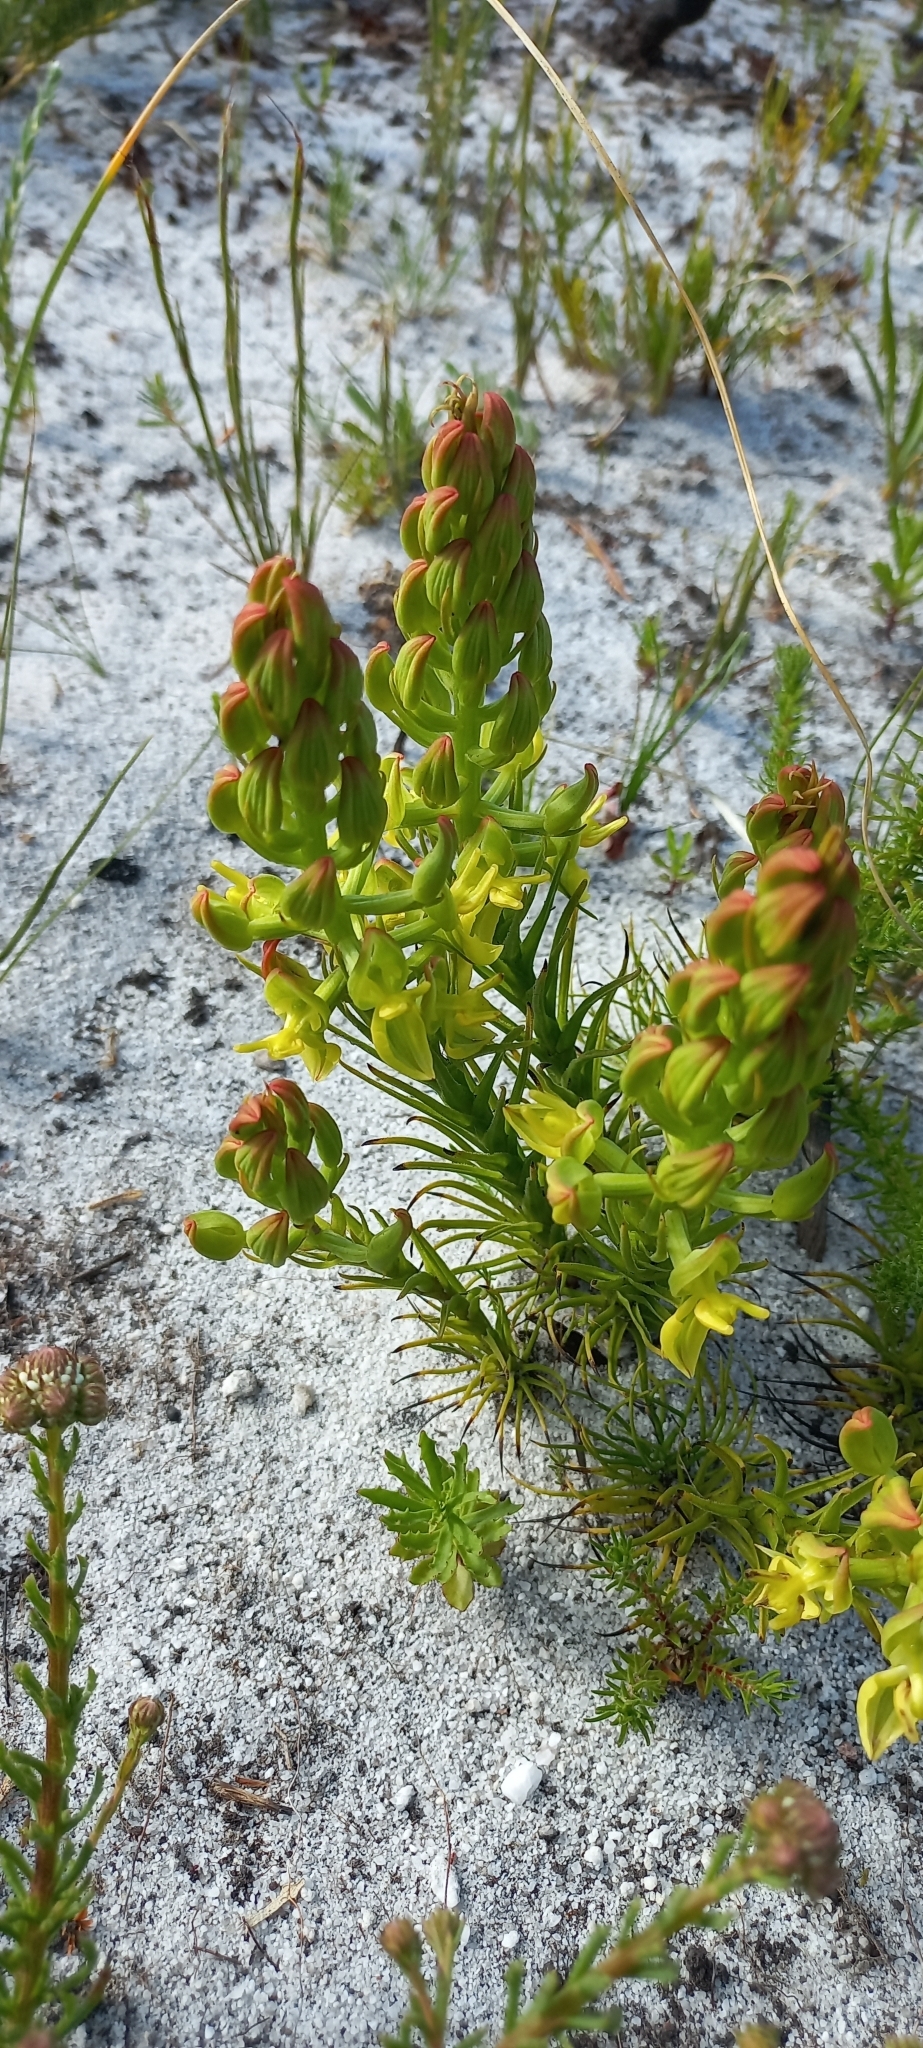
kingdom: Plantae
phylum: Tracheophyta
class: Liliopsida
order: Asparagales
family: Orchidaceae
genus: Ceratandra
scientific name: Ceratandra atrata
